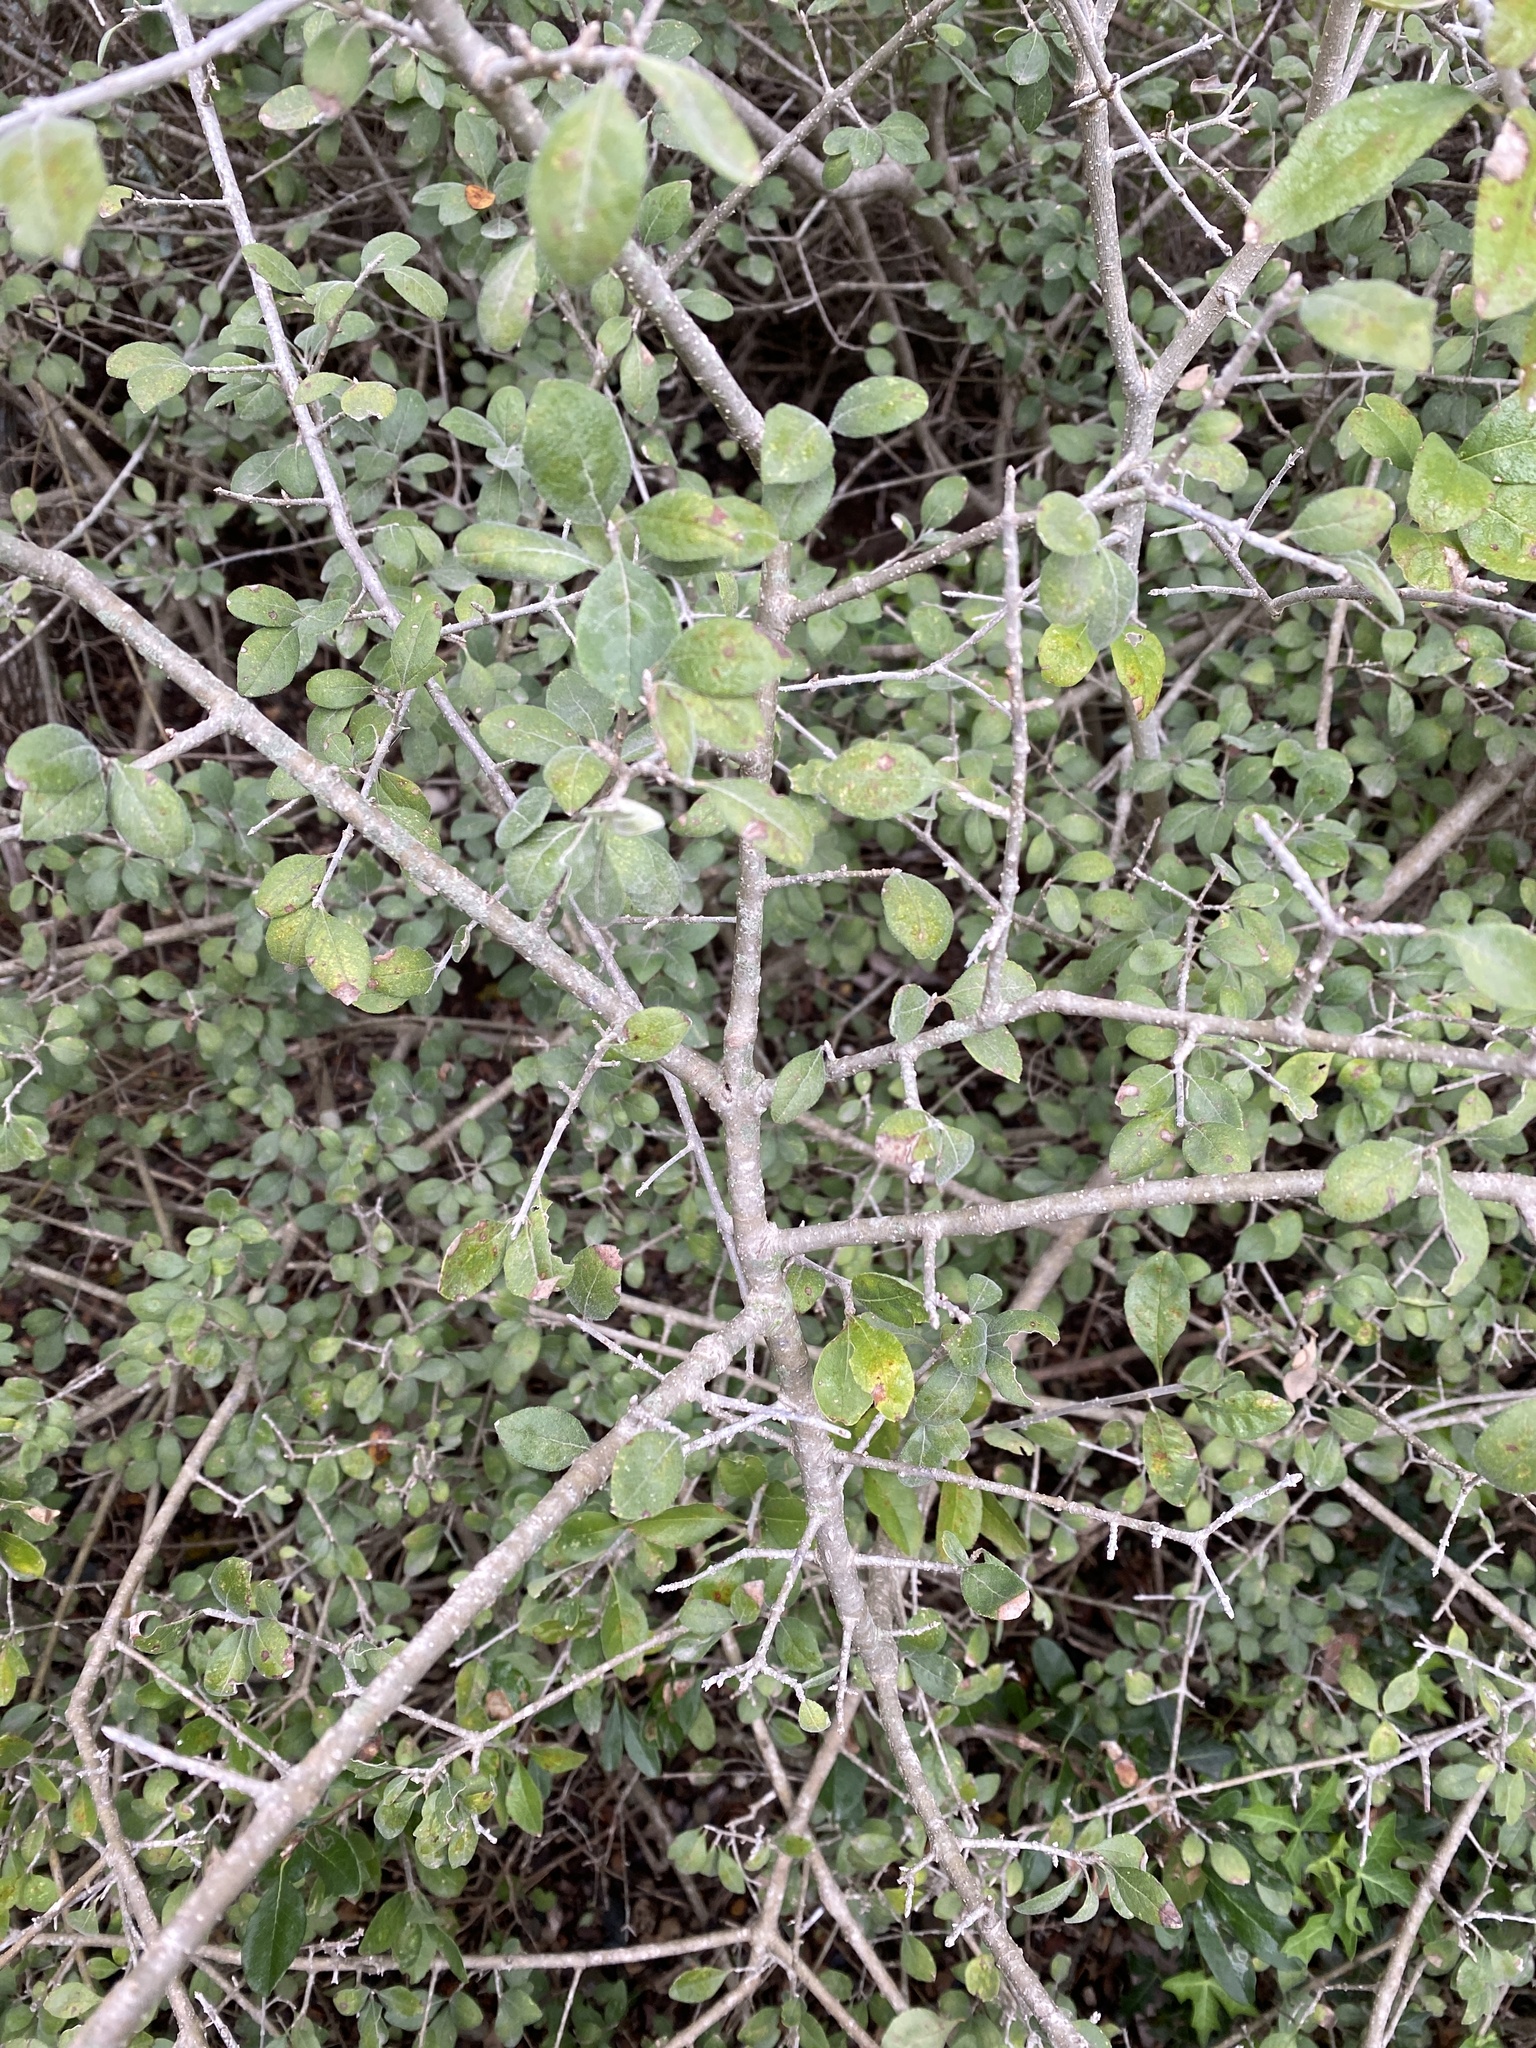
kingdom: Plantae
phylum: Tracheophyta
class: Magnoliopsida
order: Lamiales
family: Oleaceae
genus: Forestiera
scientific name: Forestiera pubescens
